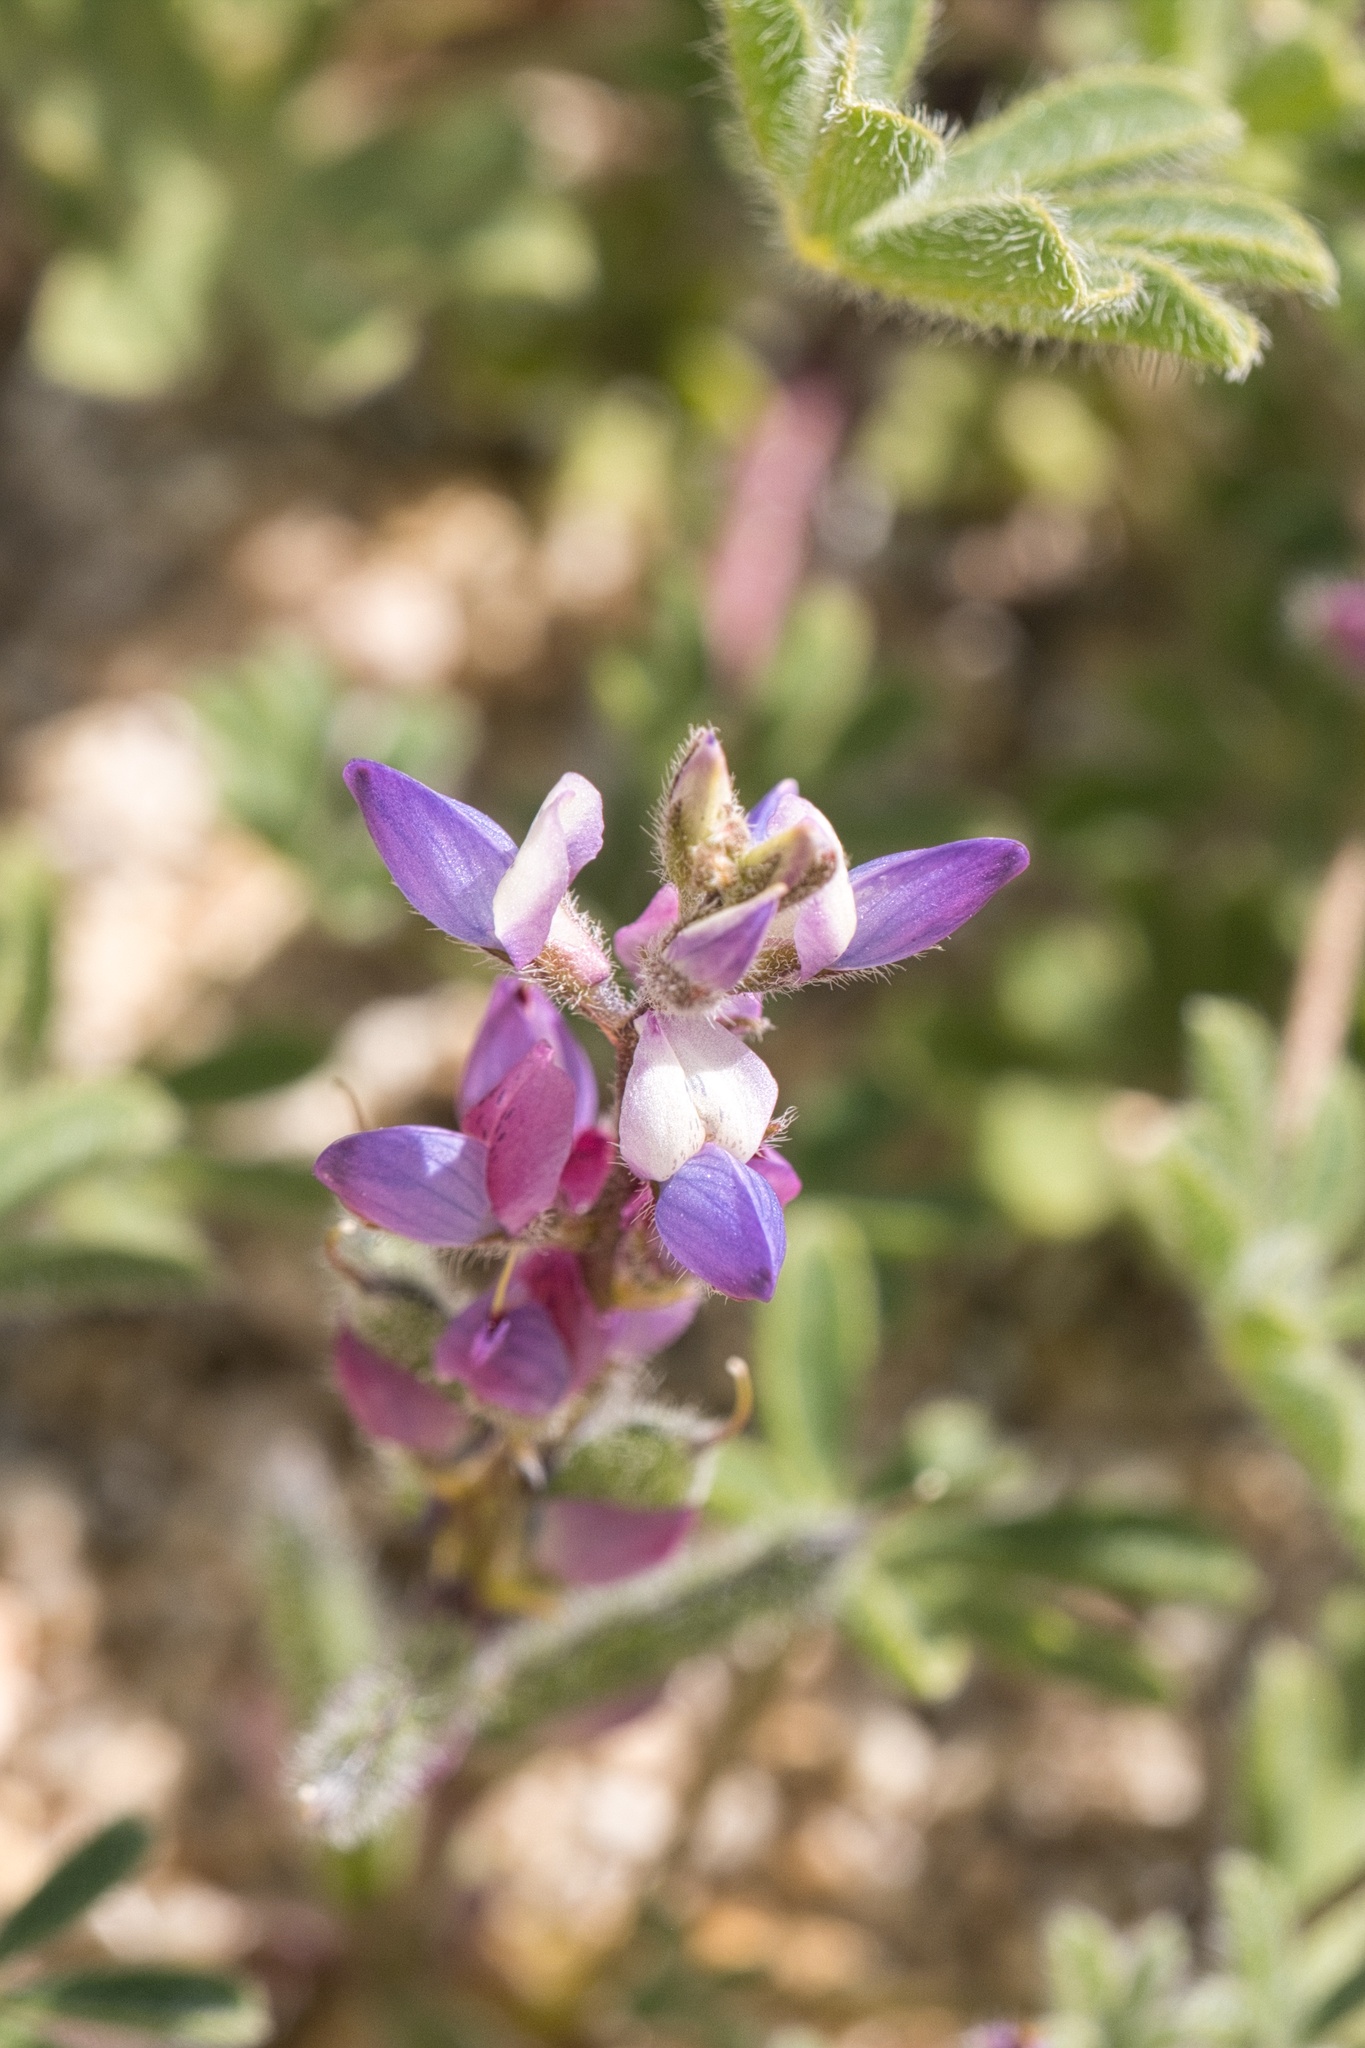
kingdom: Plantae
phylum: Tracheophyta
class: Magnoliopsida
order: Fabales
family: Fabaceae
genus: Lupinus
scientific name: Lupinus concinnus
